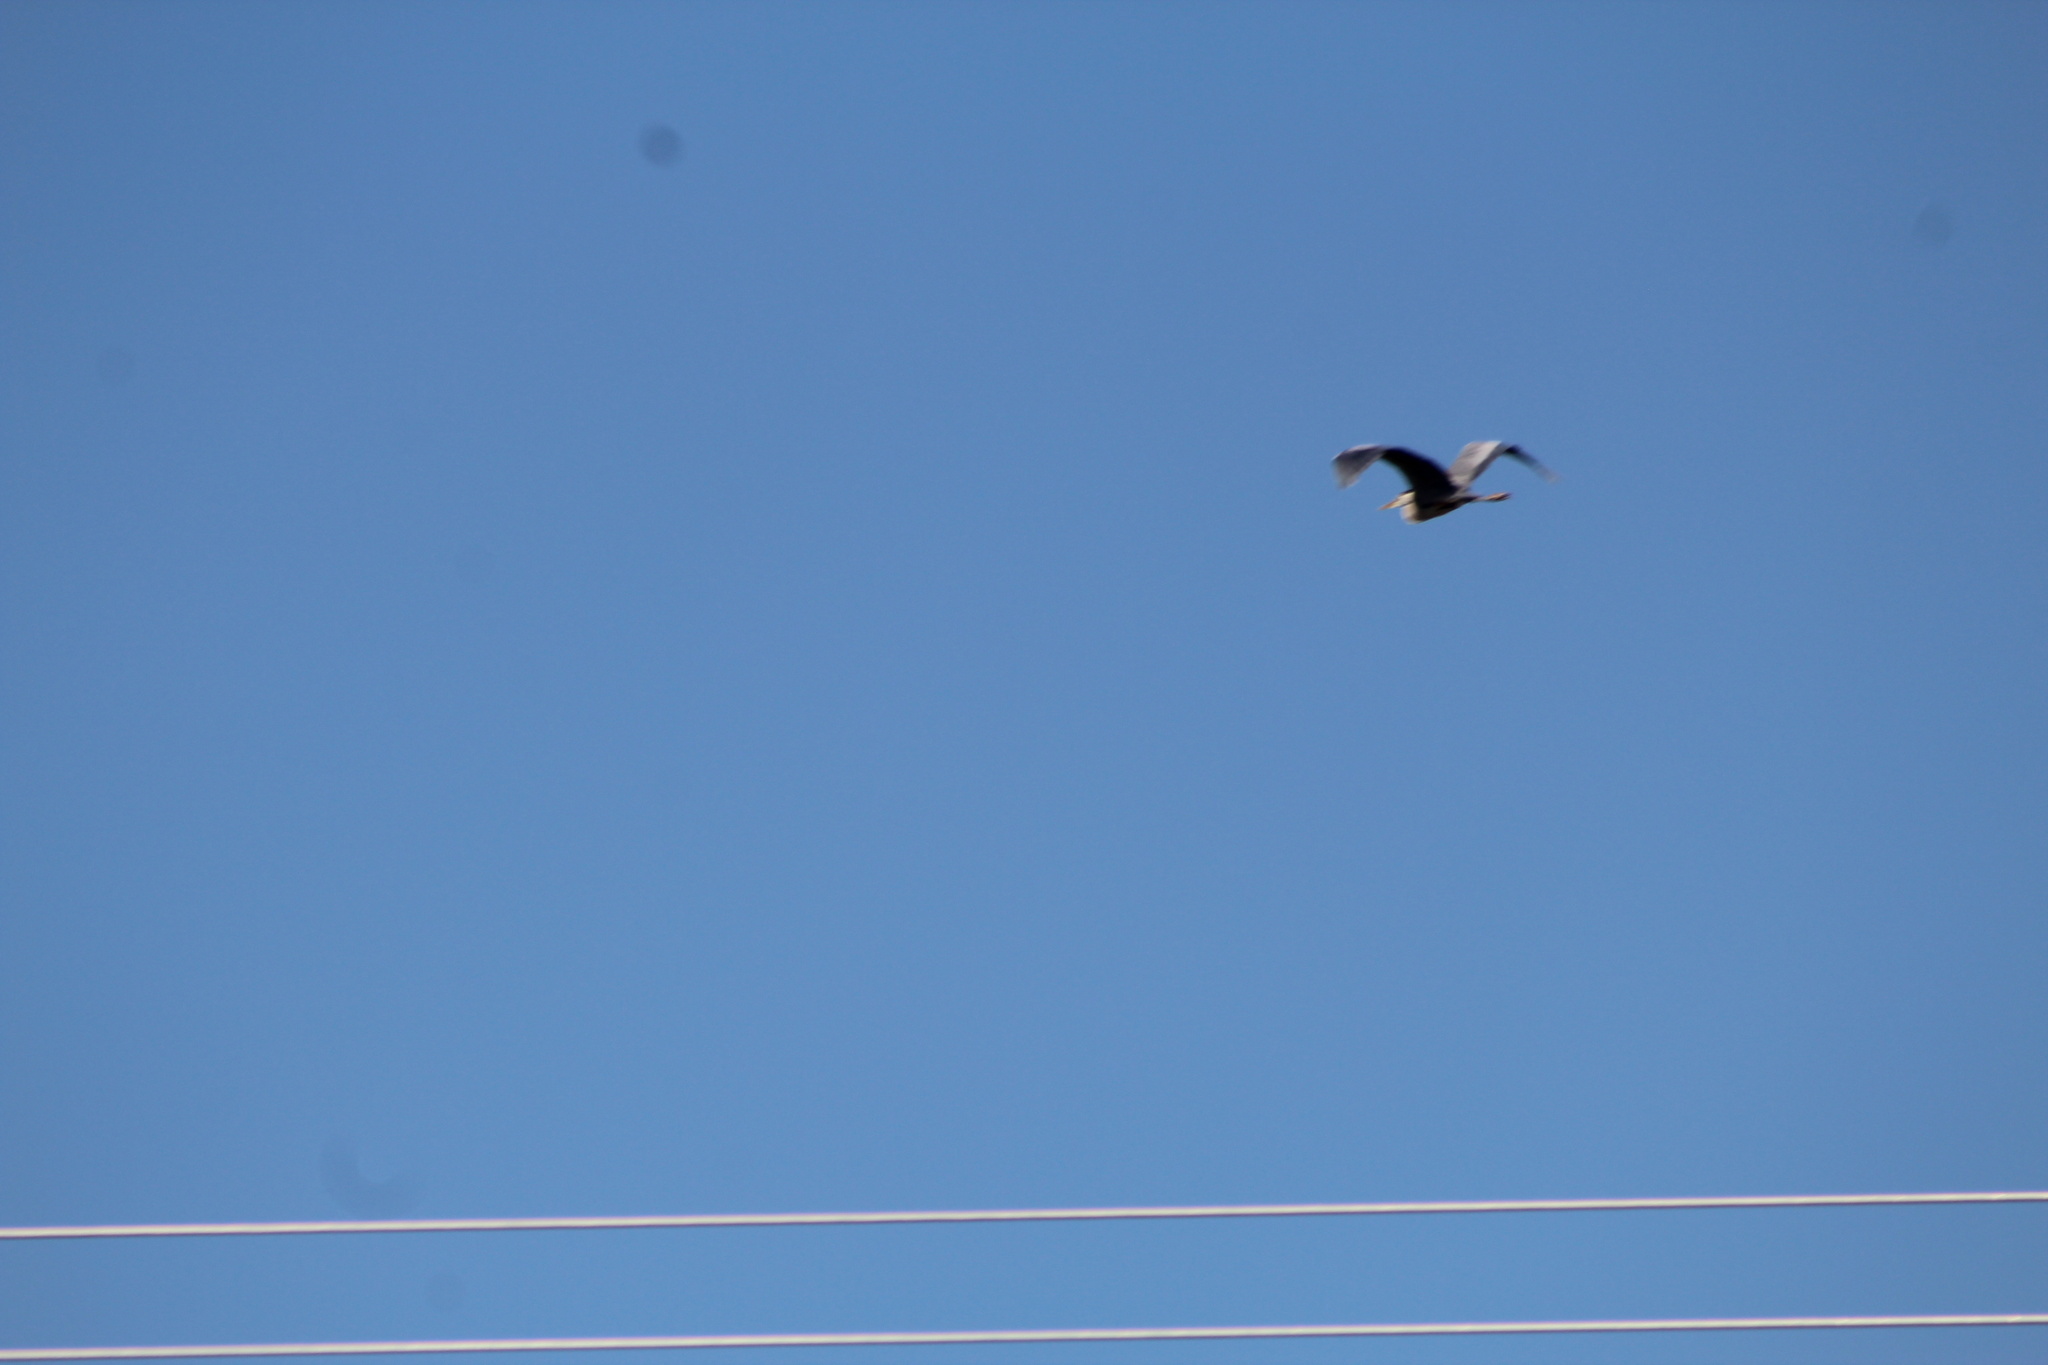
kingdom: Animalia
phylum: Chordata
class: Aves
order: Pelecaniformes
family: Ardeidae
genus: Ardea
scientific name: Ardea herodias
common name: Great blue heron
